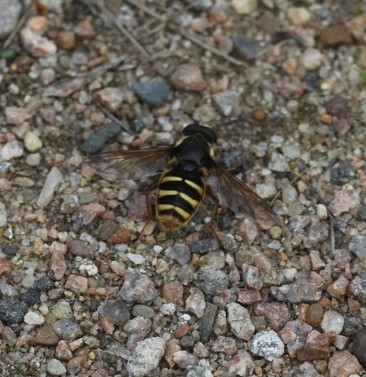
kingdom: Animalia
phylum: Arthropoda
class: Insecta
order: Diptera
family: Syrphidae
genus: Sericomyia
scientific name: Sericomyia silentis
